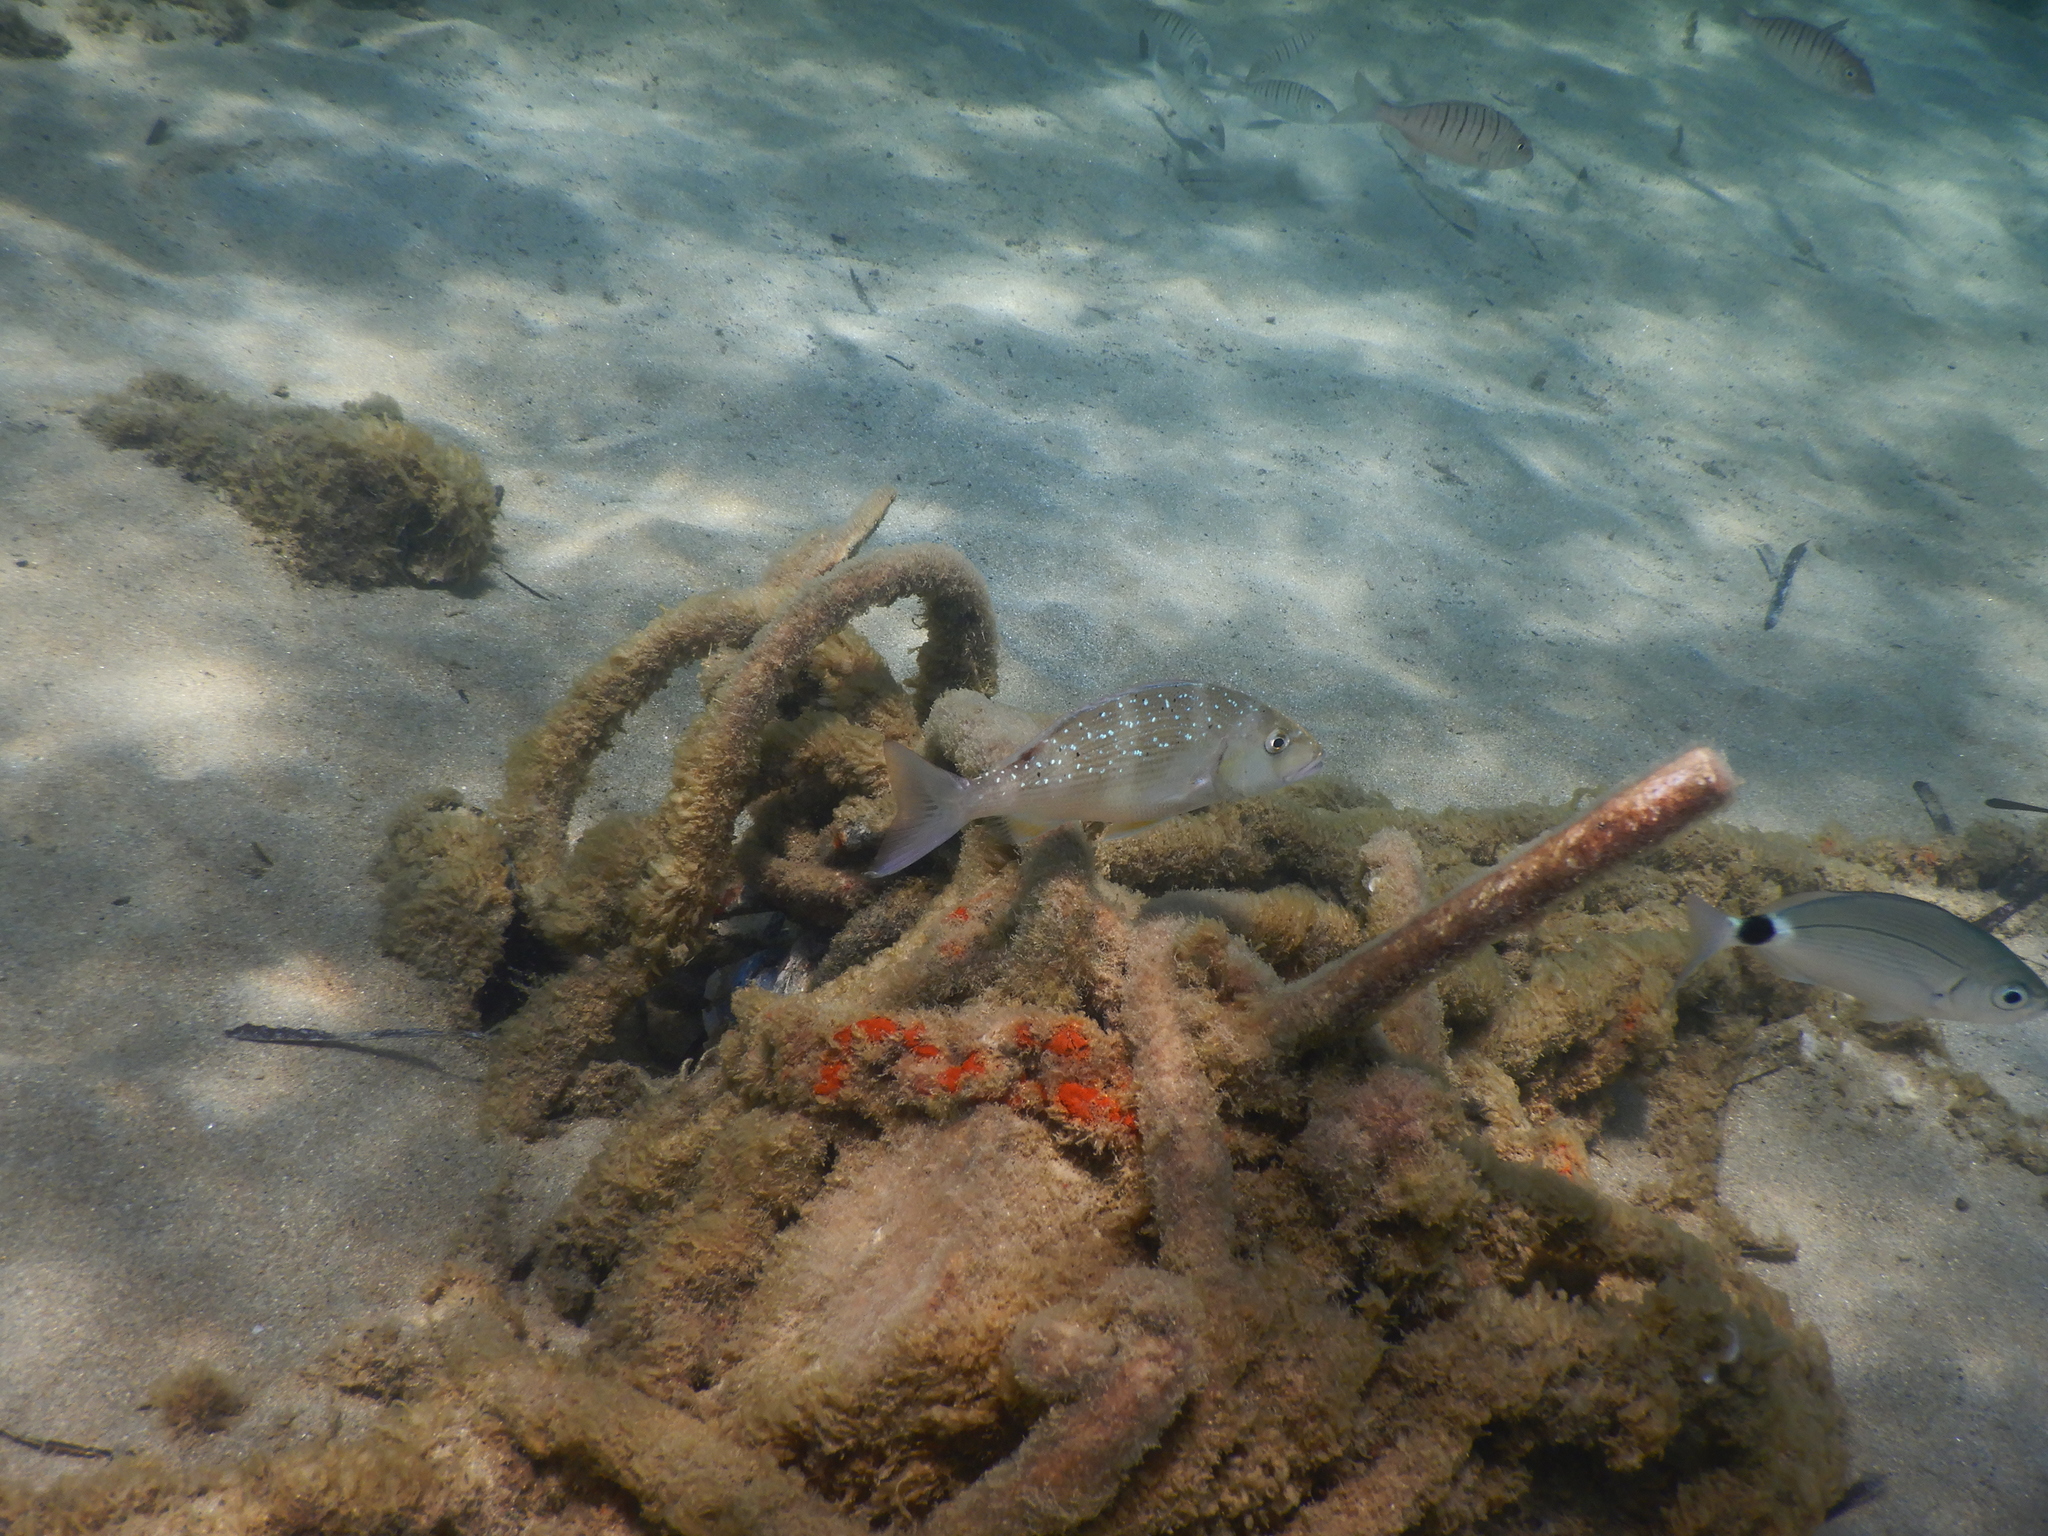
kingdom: Animalia
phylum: Chordata
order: Perciformes
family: Sparidae
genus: Dentex
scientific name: Dentex dentex
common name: Dentex
